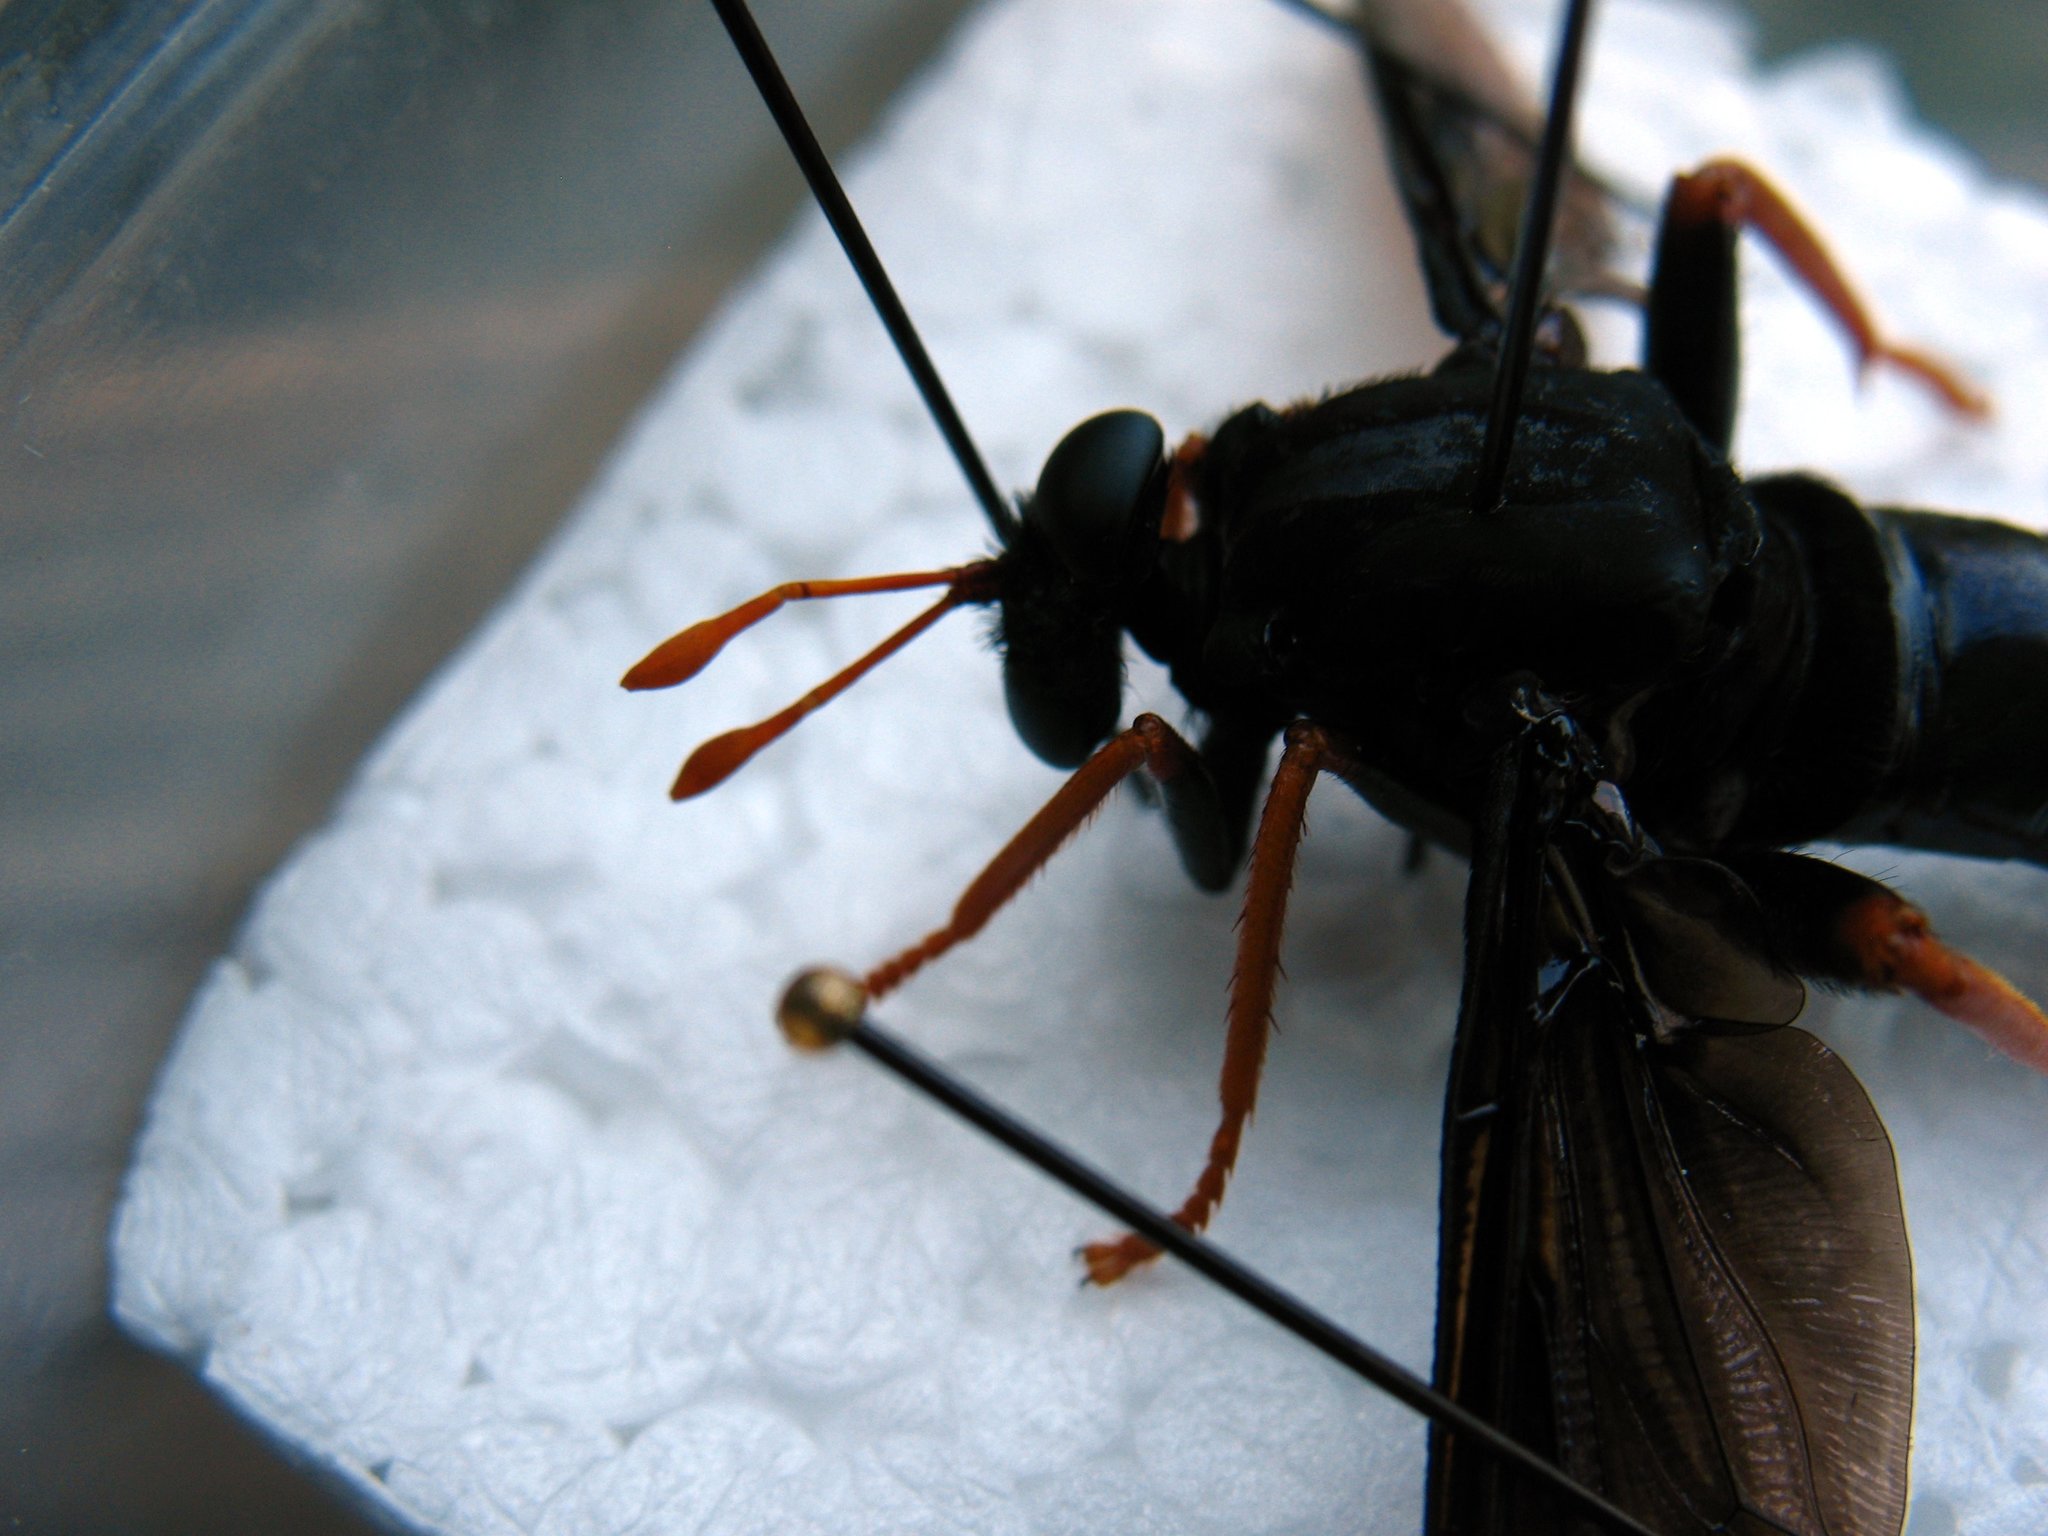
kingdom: Animalia
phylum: Arthropoda
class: Insecta
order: Diptera
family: Mydidae
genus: Mydas
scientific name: Mydas tibialis
